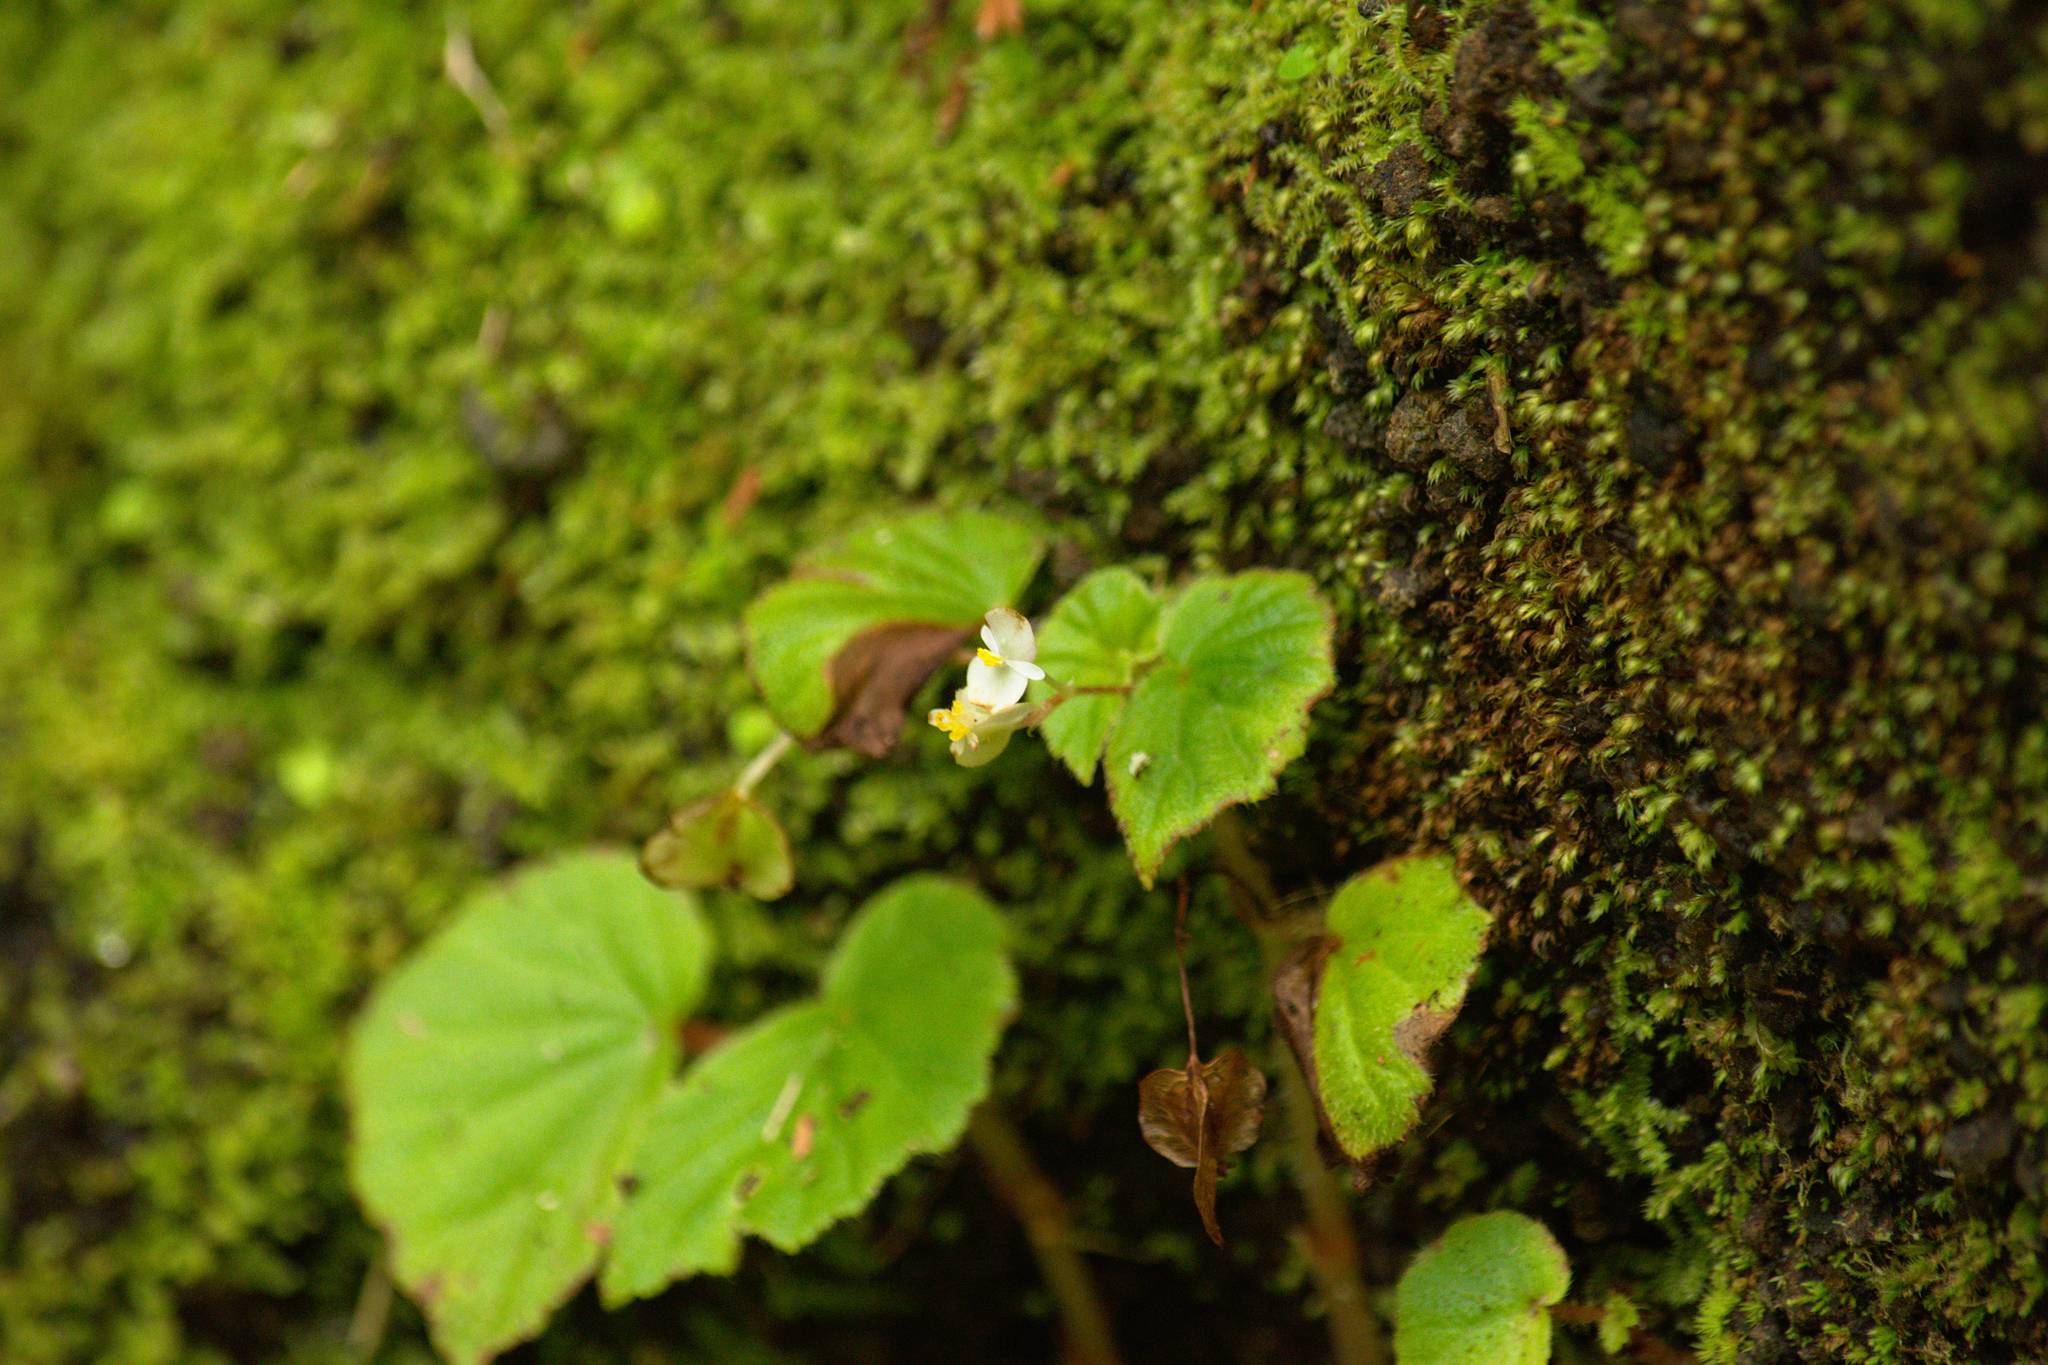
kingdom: Plantae
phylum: Tracheophyta
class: Magnoliopsida
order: Cucurbitales
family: Begoniaceae
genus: Begonia
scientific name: Begonia hirtella
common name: Brazilian begonia
